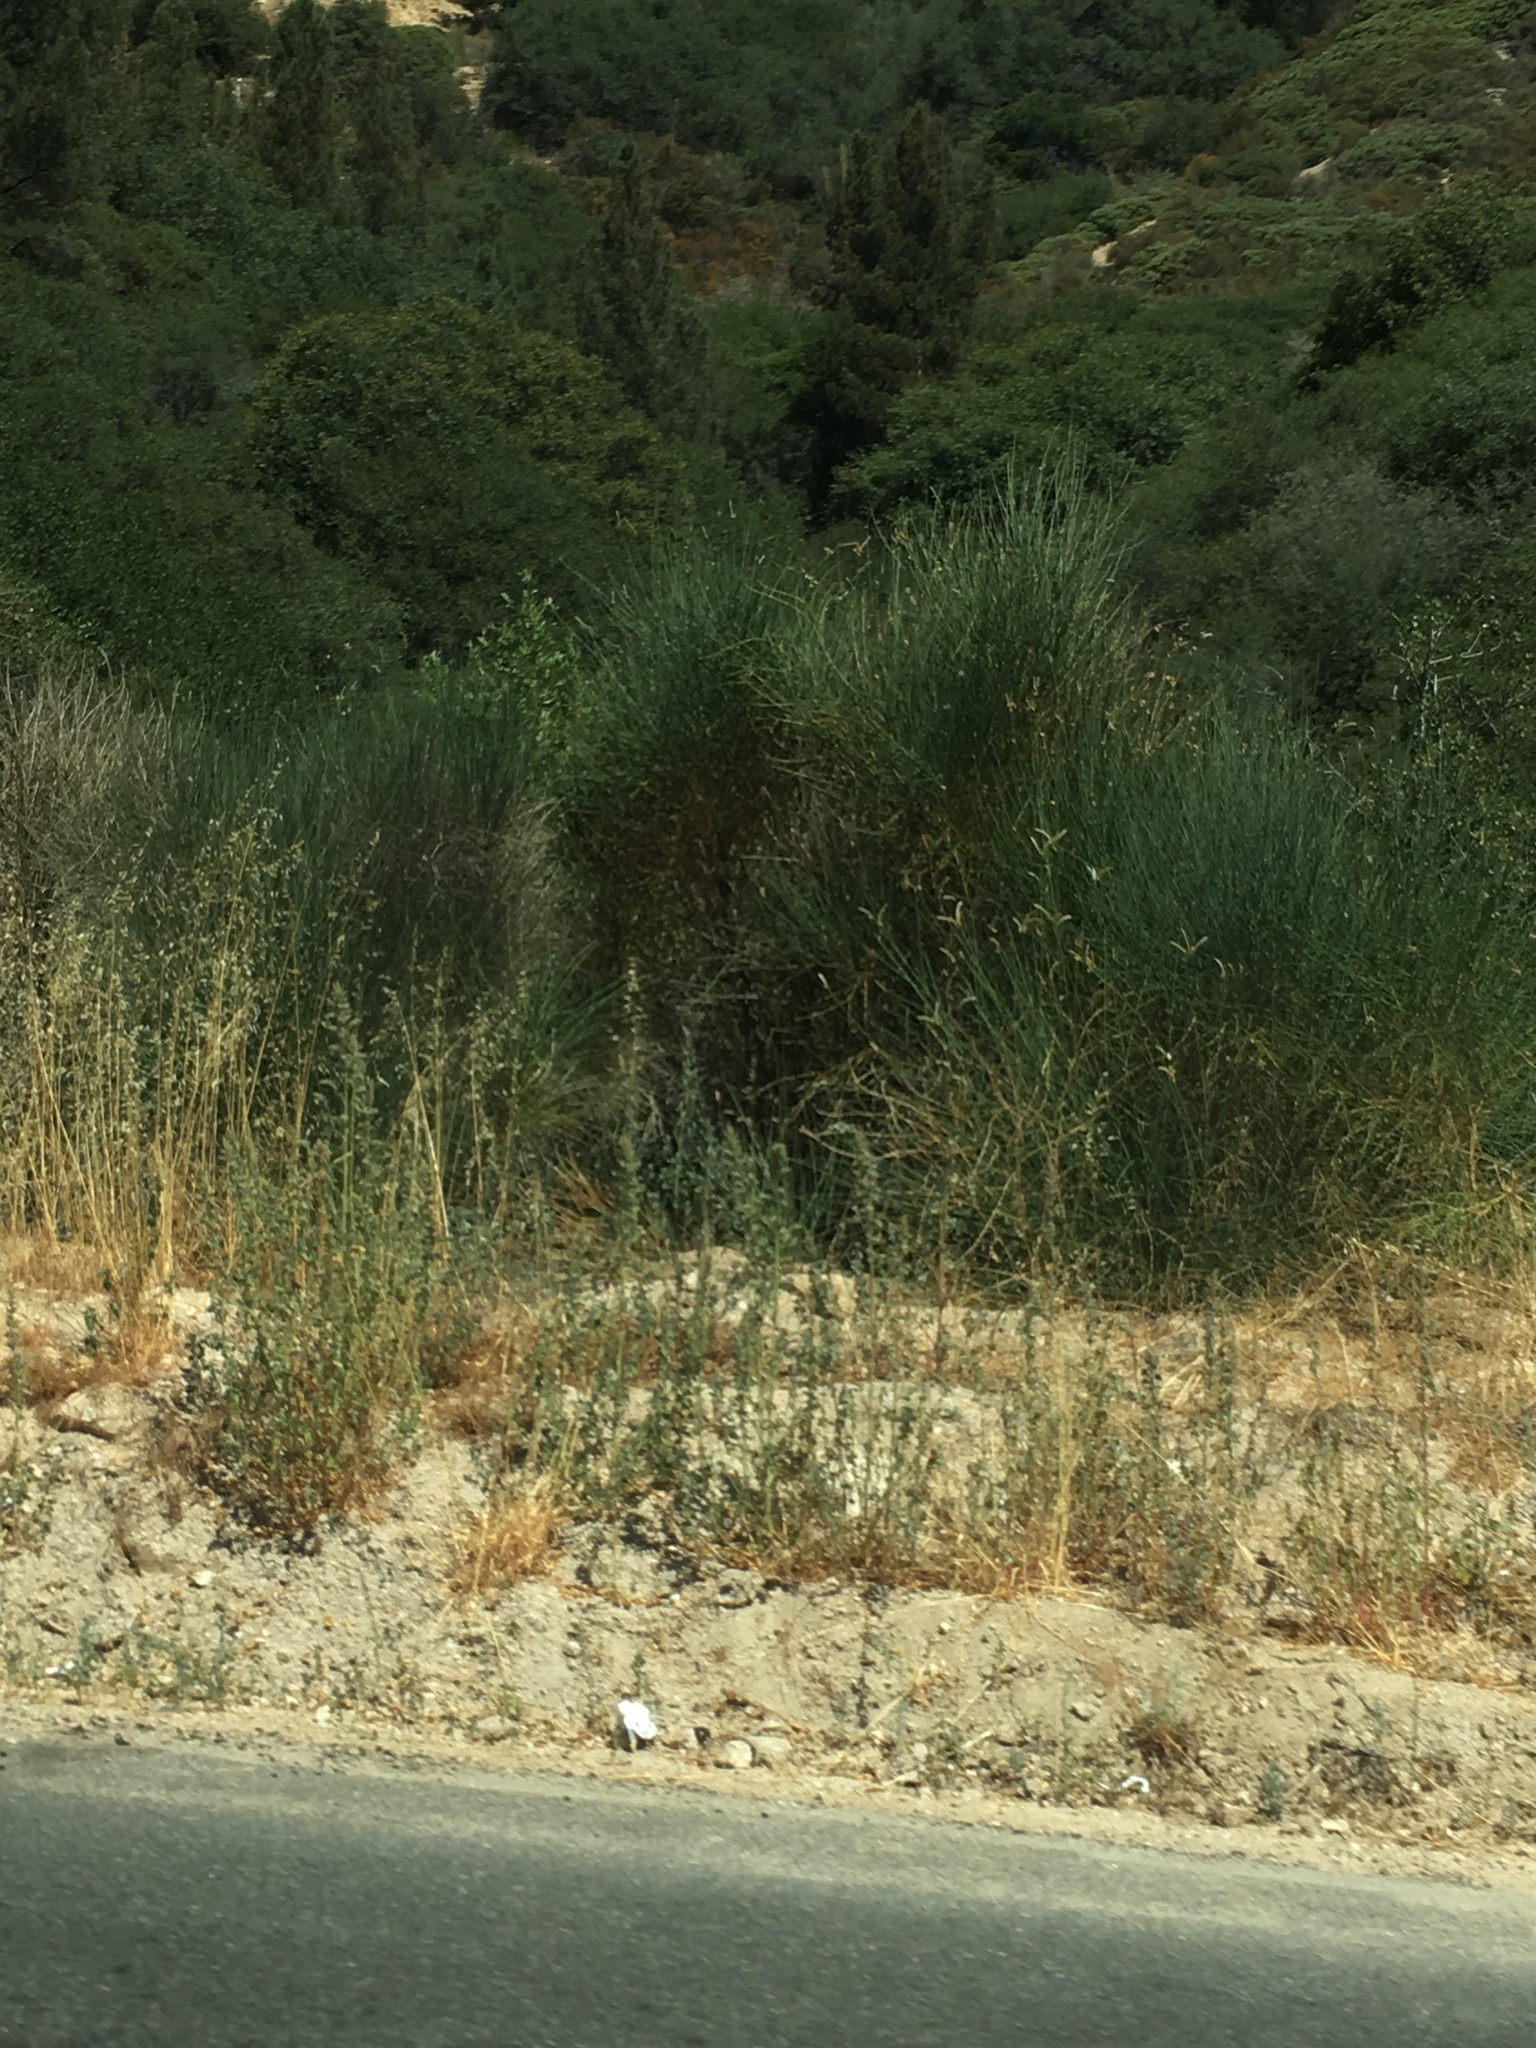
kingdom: Plantae
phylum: Tracheophyta
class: Magnoliopsida
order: Fabales
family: Fabaceae
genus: Spartium
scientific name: Spartium junceum
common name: Spanish broom
